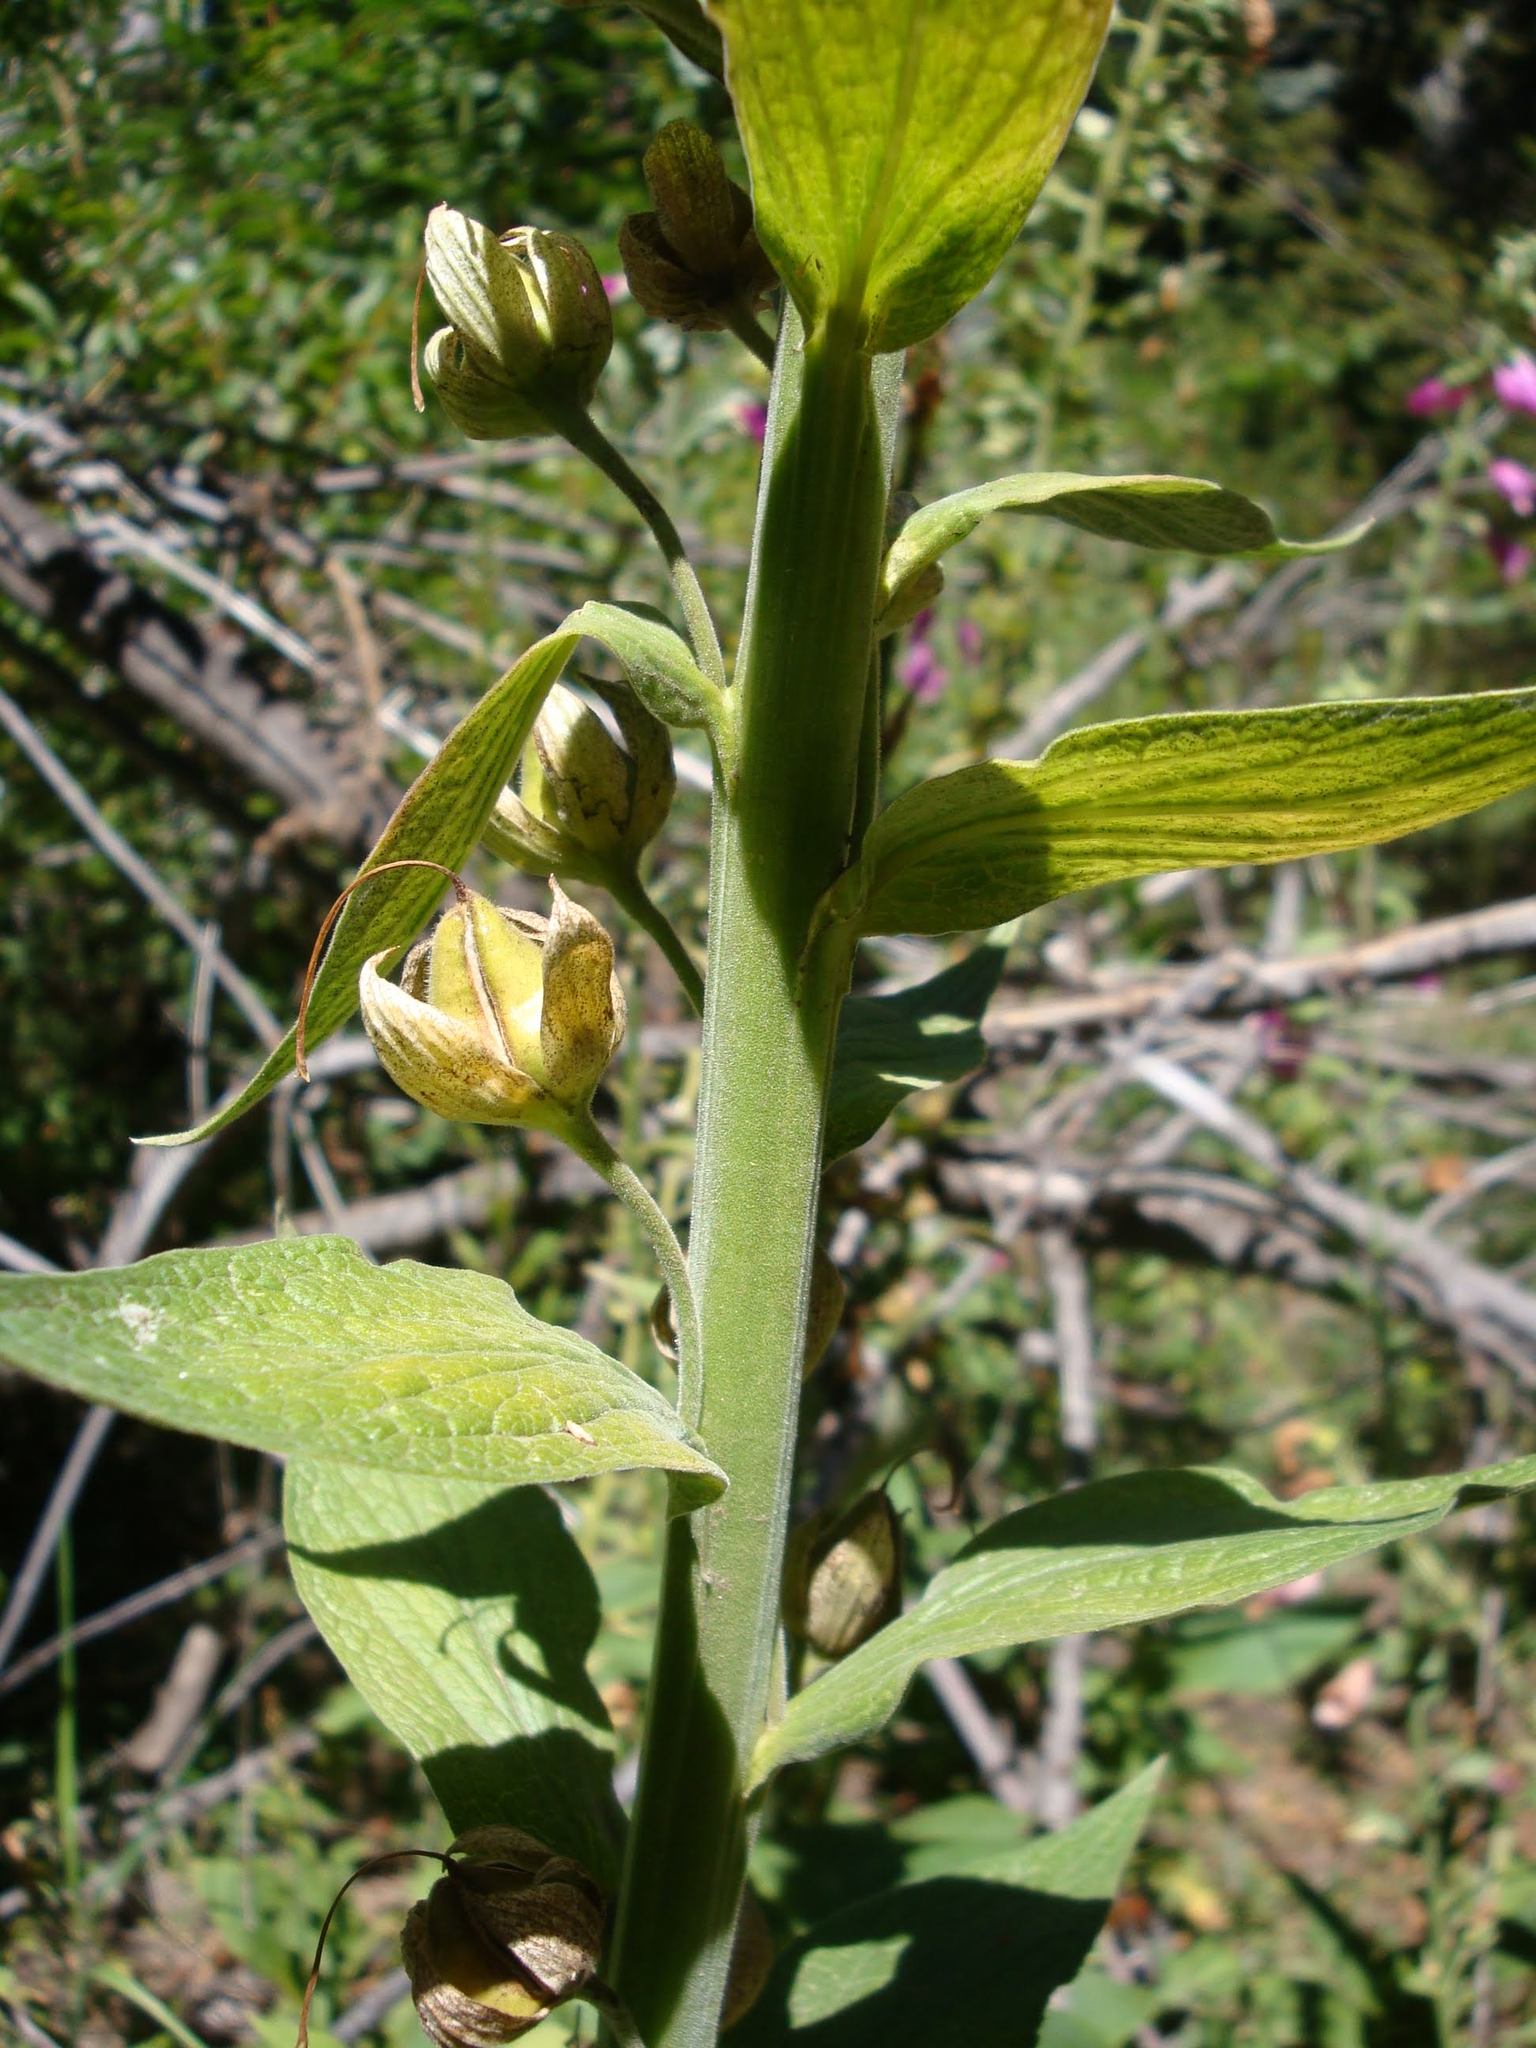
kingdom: Plantae
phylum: Tracheophyta
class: Magnoliopsida
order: Lamiales
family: Plantaginaceae
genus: Digitalis
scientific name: Digitalis purpurea
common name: Foxglove
